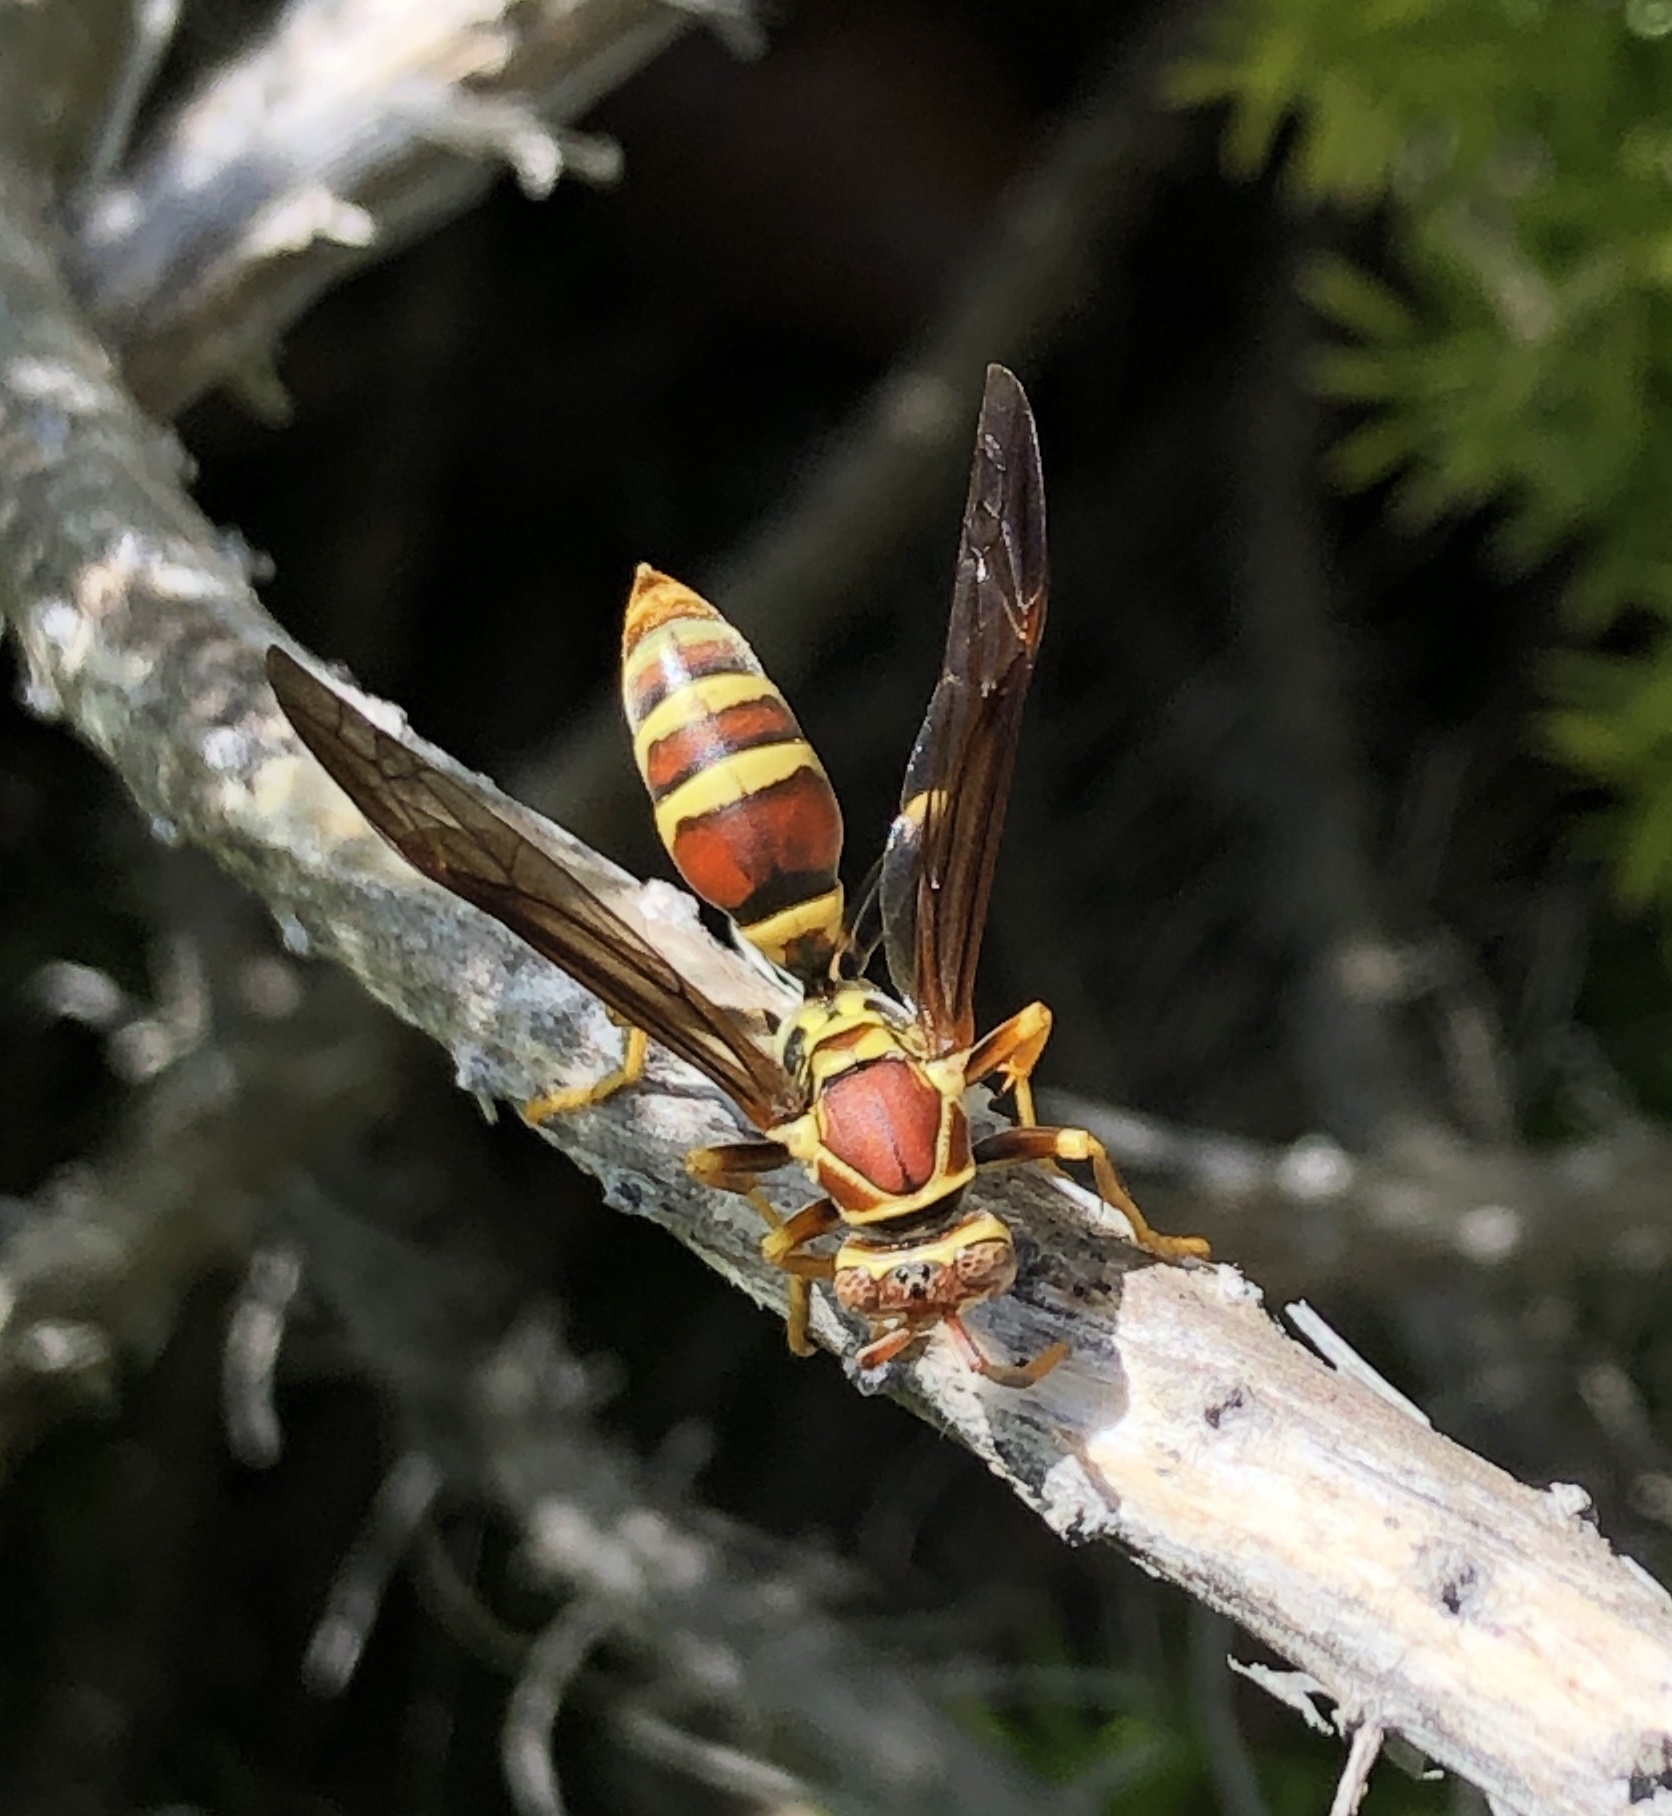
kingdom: Animalia
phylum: Arthropoda
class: Insecta
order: Hymenoptera
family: Eumenidae
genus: Polistes
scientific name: Polistes exclamans
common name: Paper wasp
